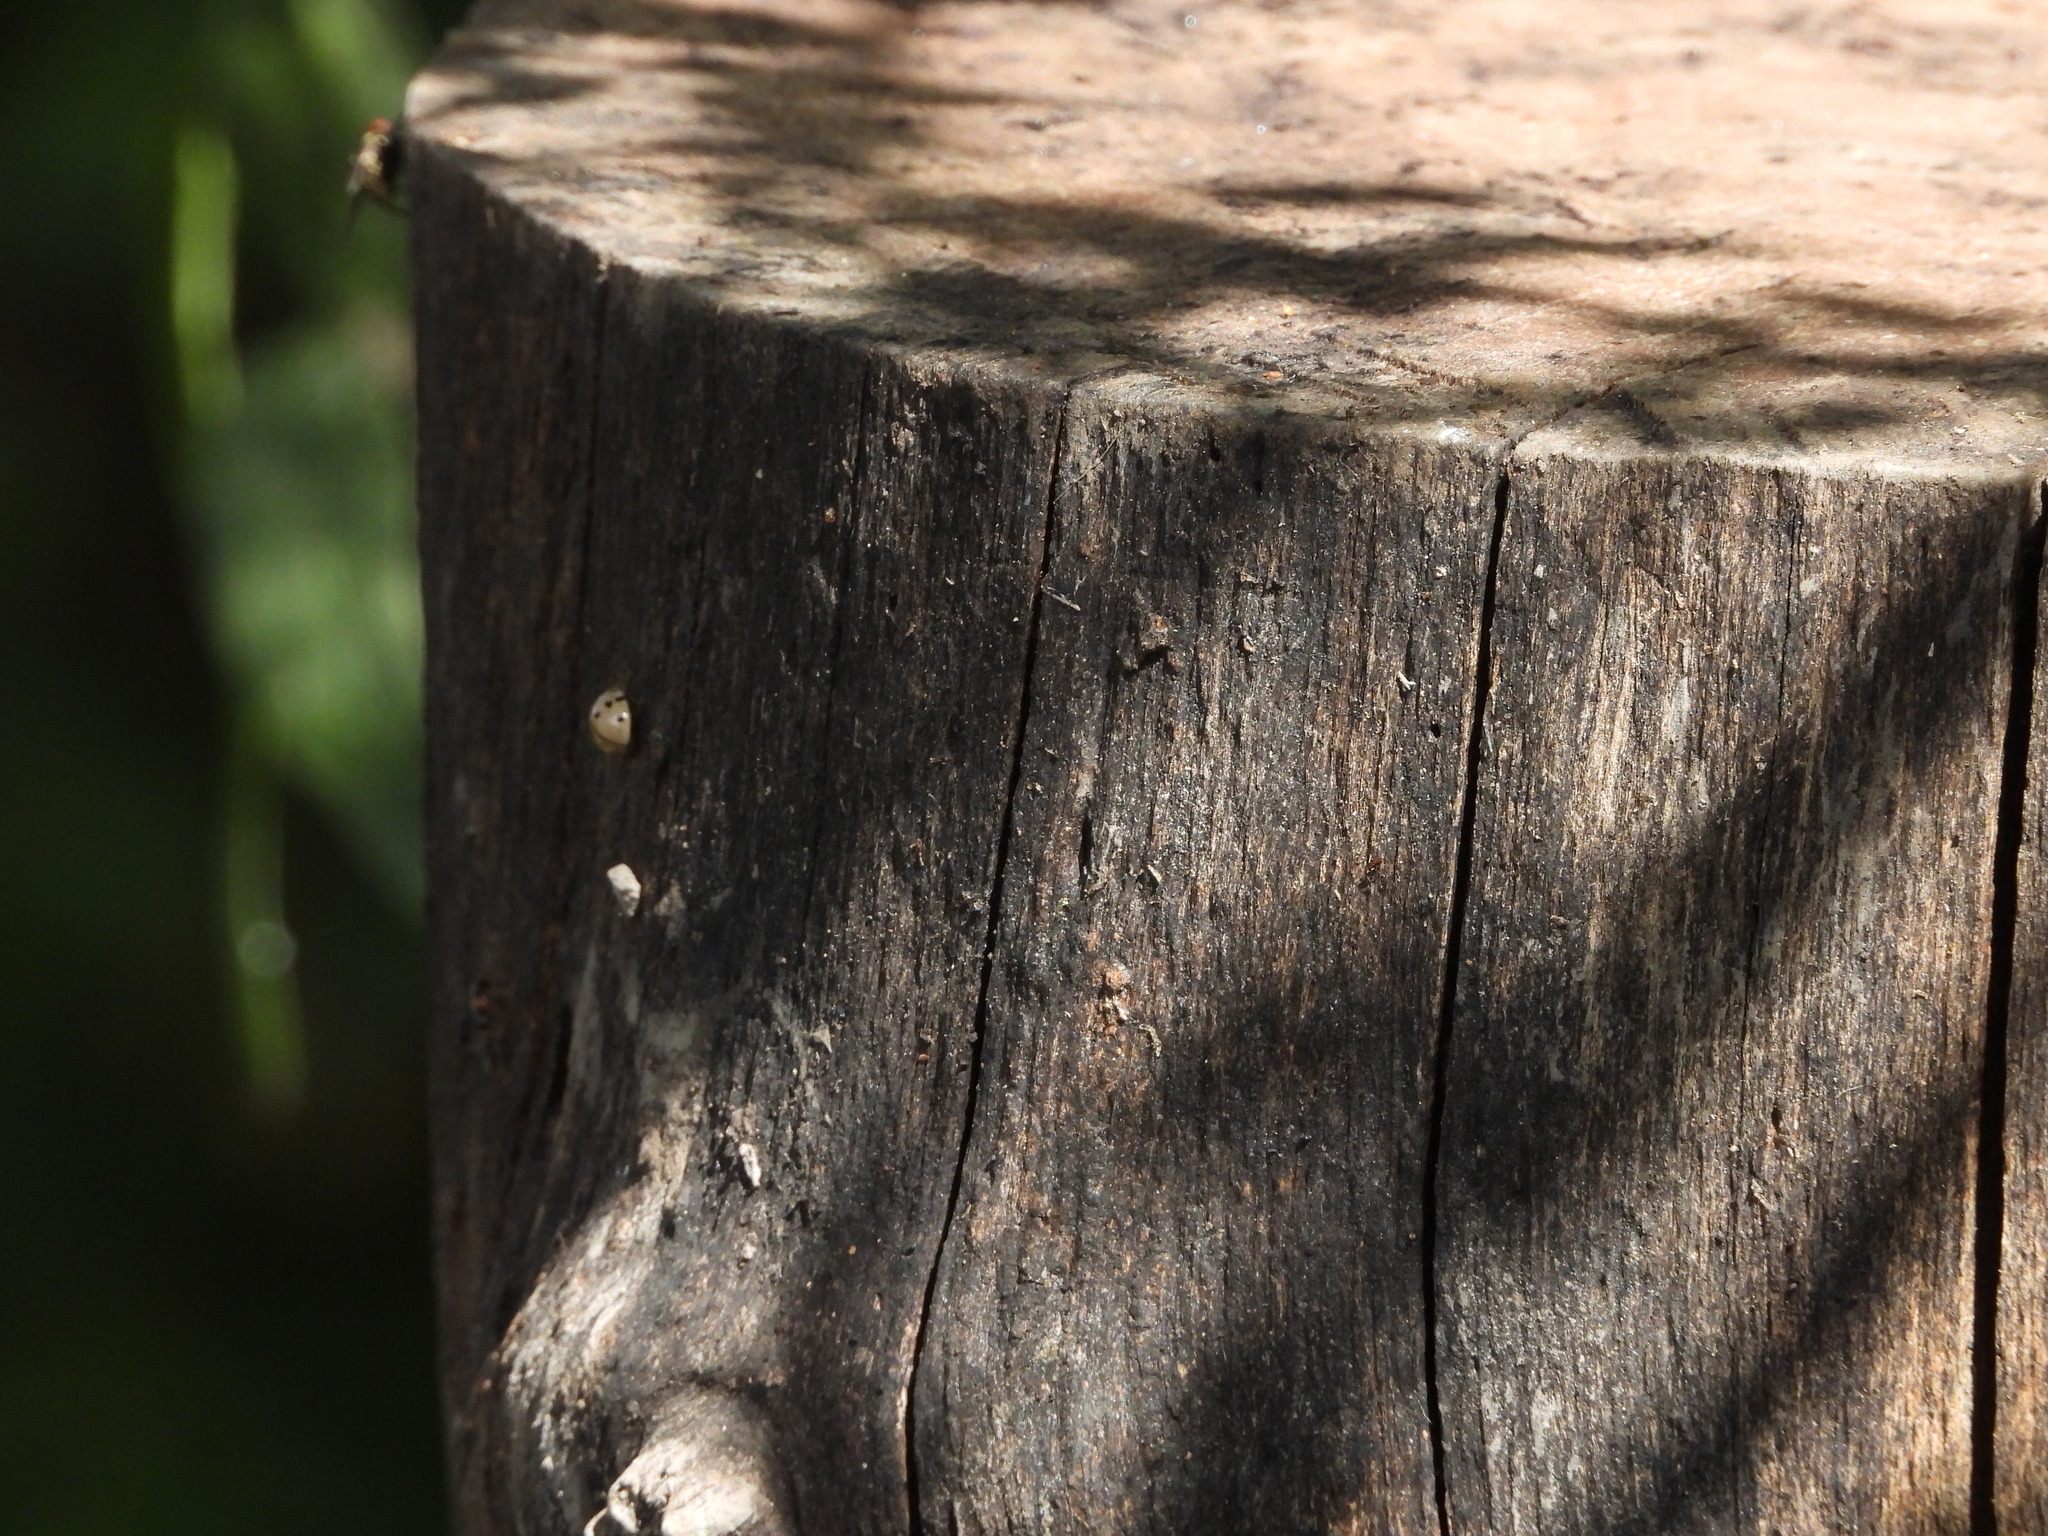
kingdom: Animalia
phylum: Arthropoda
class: Insecta
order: Coleoptera
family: Coccinellidae
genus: Olla
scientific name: Olla v-nigrum
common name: Ashy gray lady beetle
